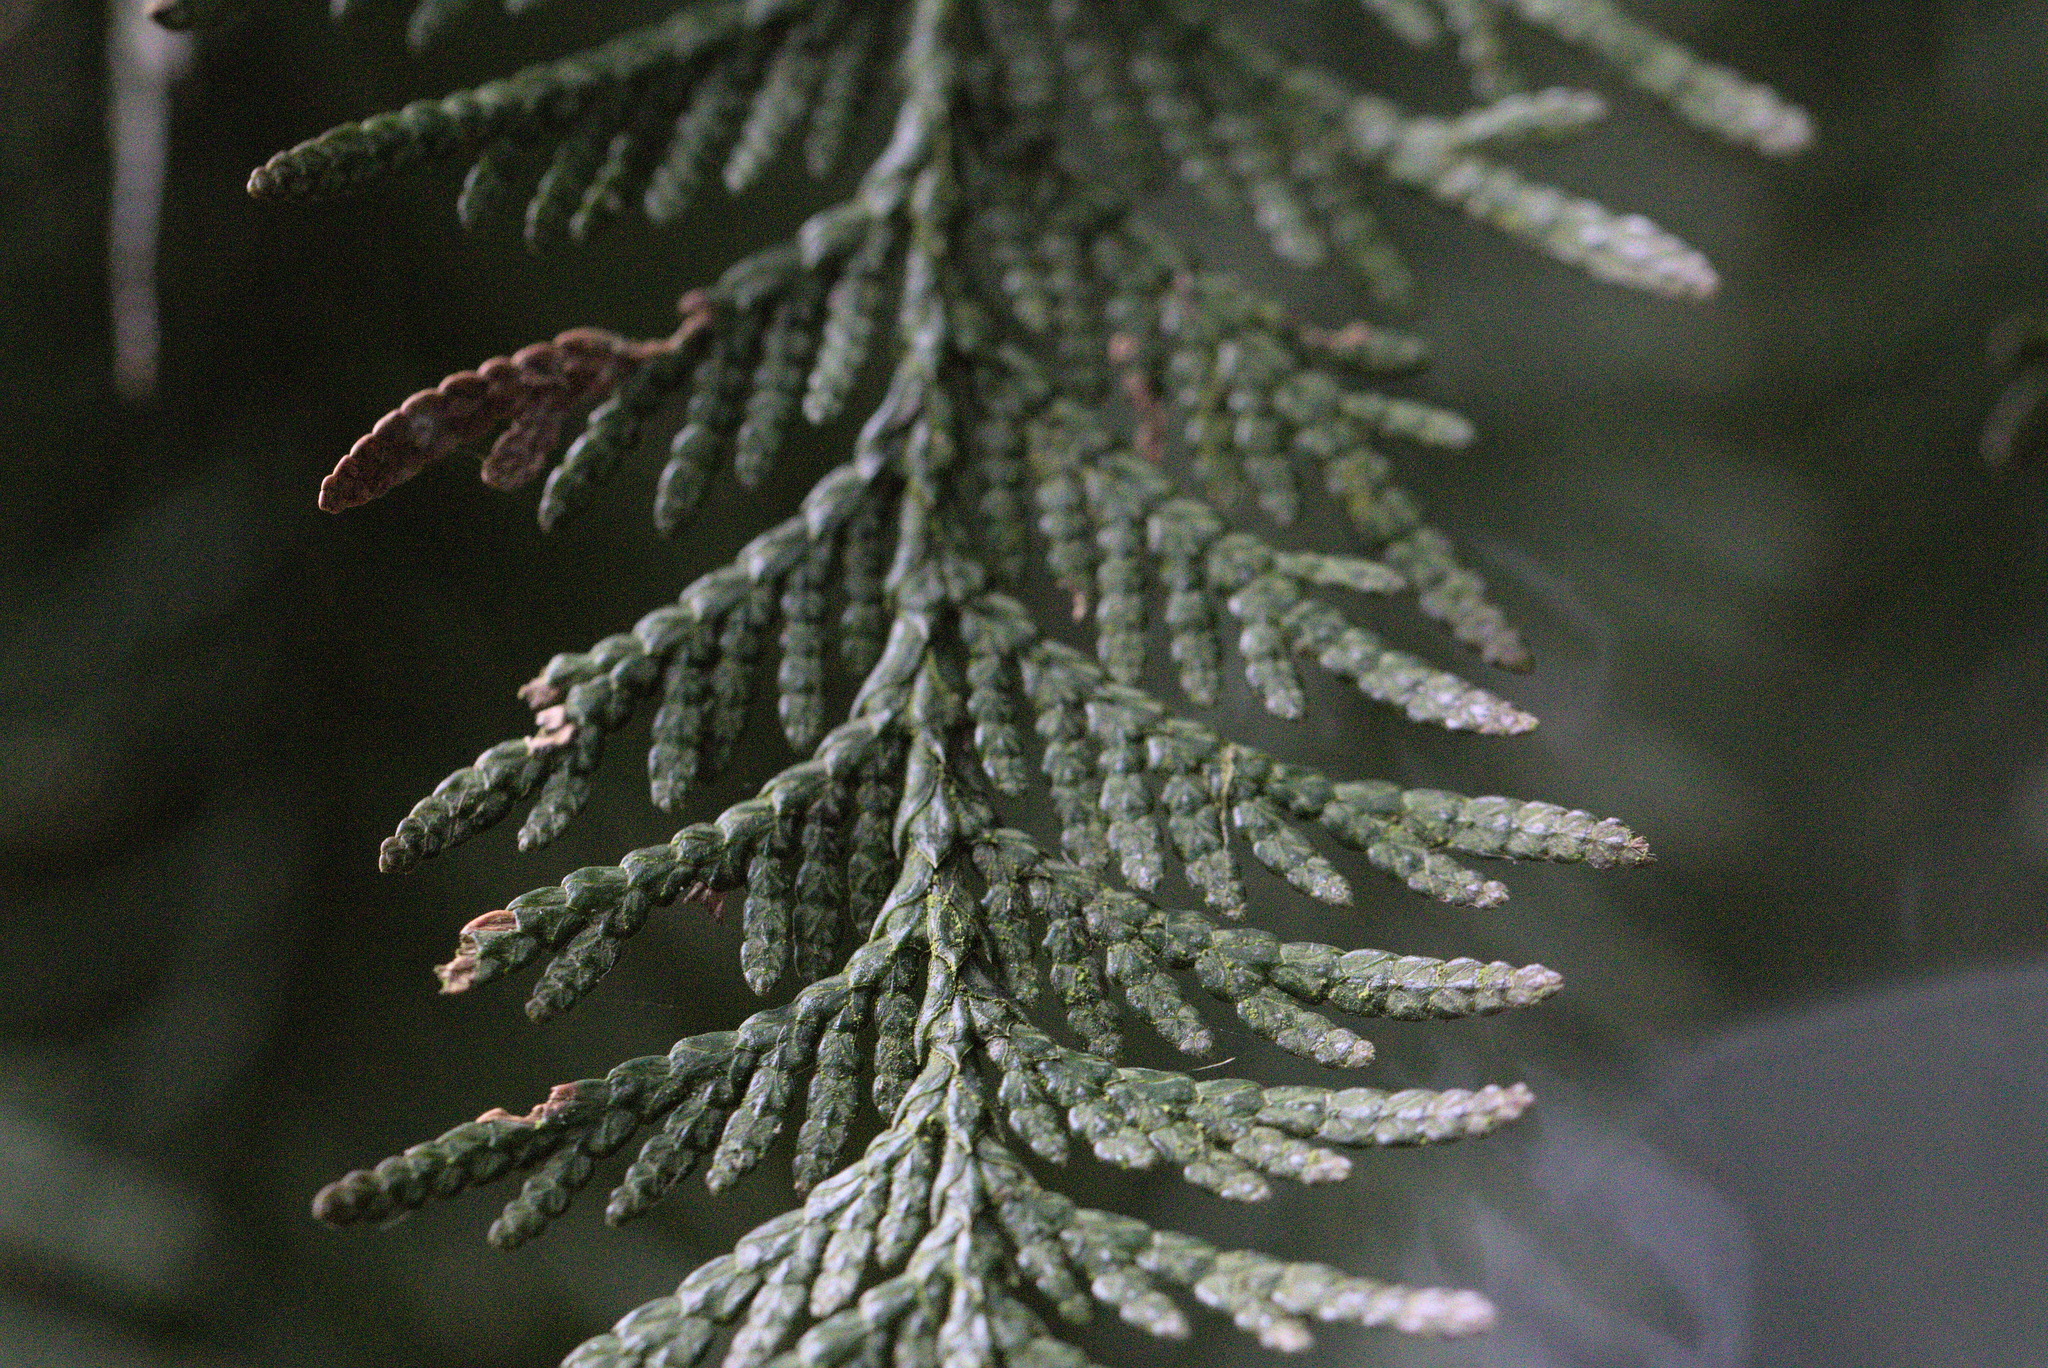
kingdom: Plantae
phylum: Tracheophyta
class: Pinopsida
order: Pinales
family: Cupressaceae
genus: Thuja
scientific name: Thuja plicata
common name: Western red-cedar
